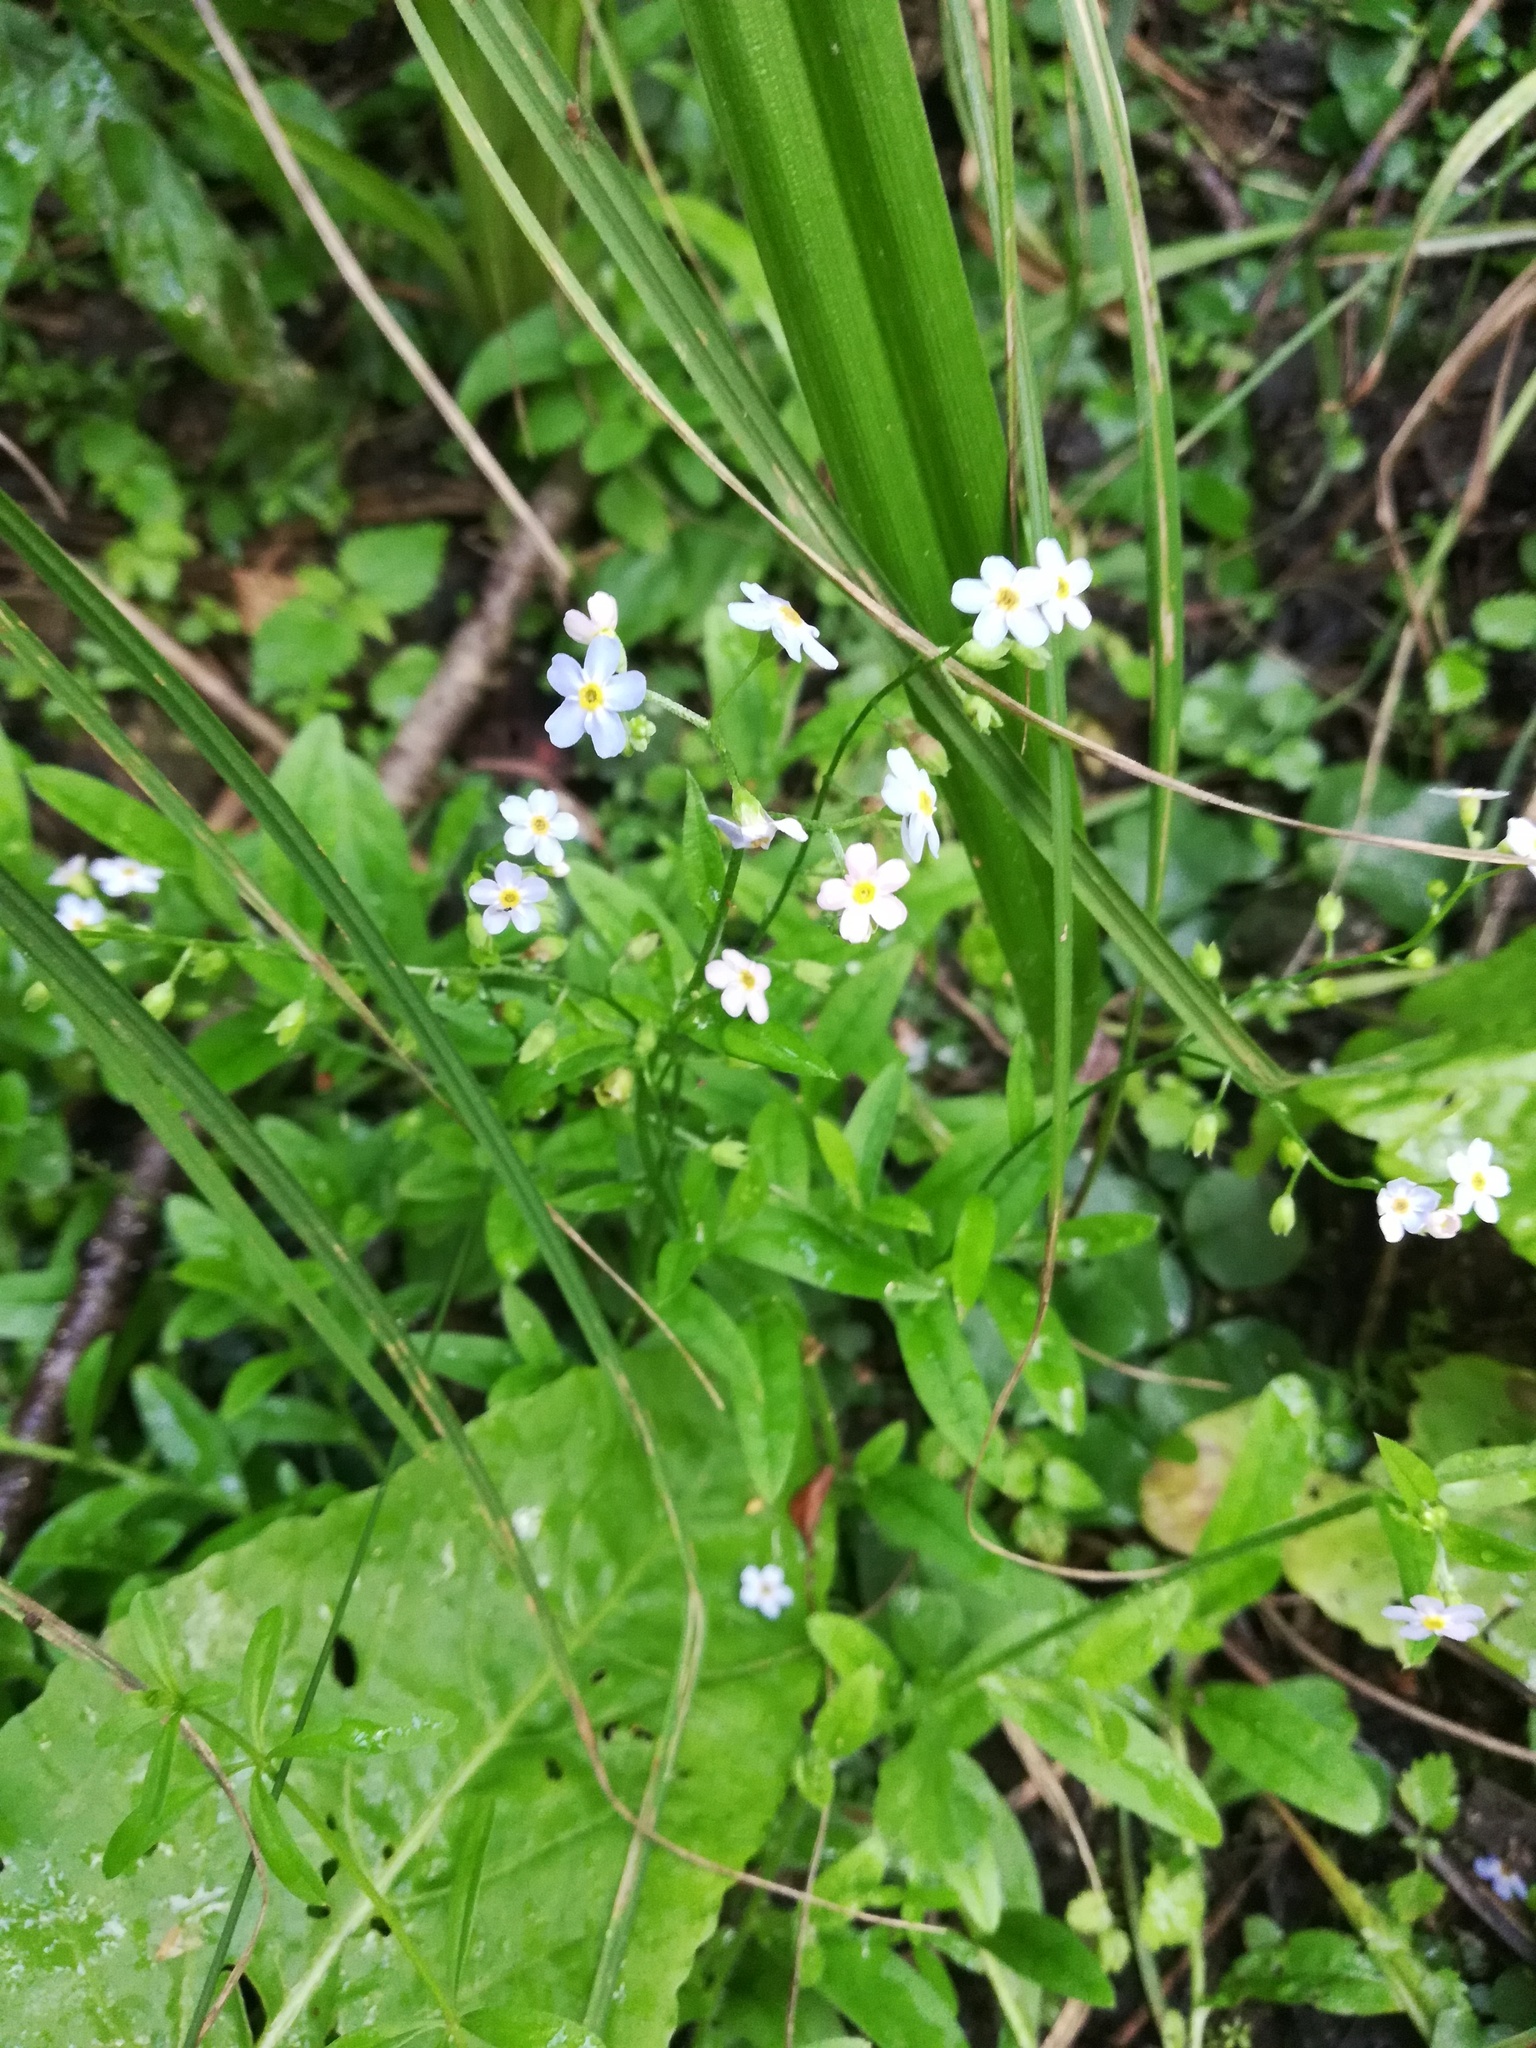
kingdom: Plantae
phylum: Tracheophyta
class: Magnoliopsida
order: Boraginales
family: Boraginaceae
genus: Myosotis
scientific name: Myosotis scorpioides
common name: Water forget-me-not
